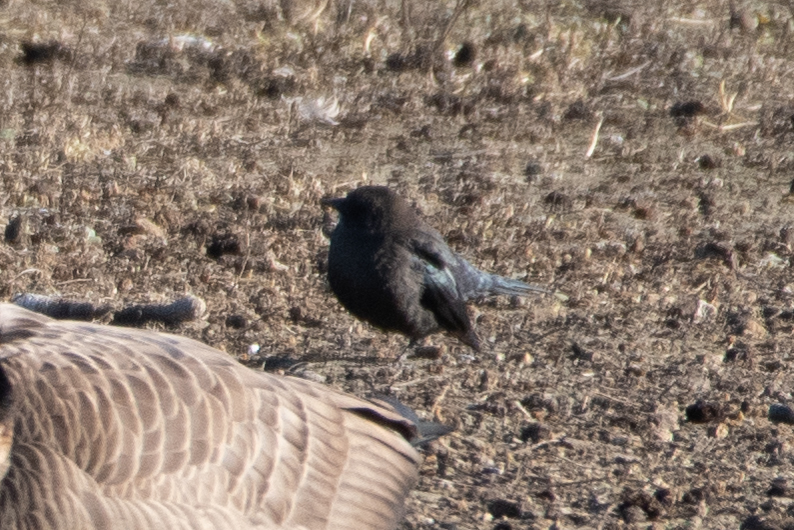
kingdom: Animalia
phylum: Chordata
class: Aves
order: Passeriformes
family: Icteridae
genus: Euphagus
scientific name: Euphagus cyanocephalus
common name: Brewer's blackbird
